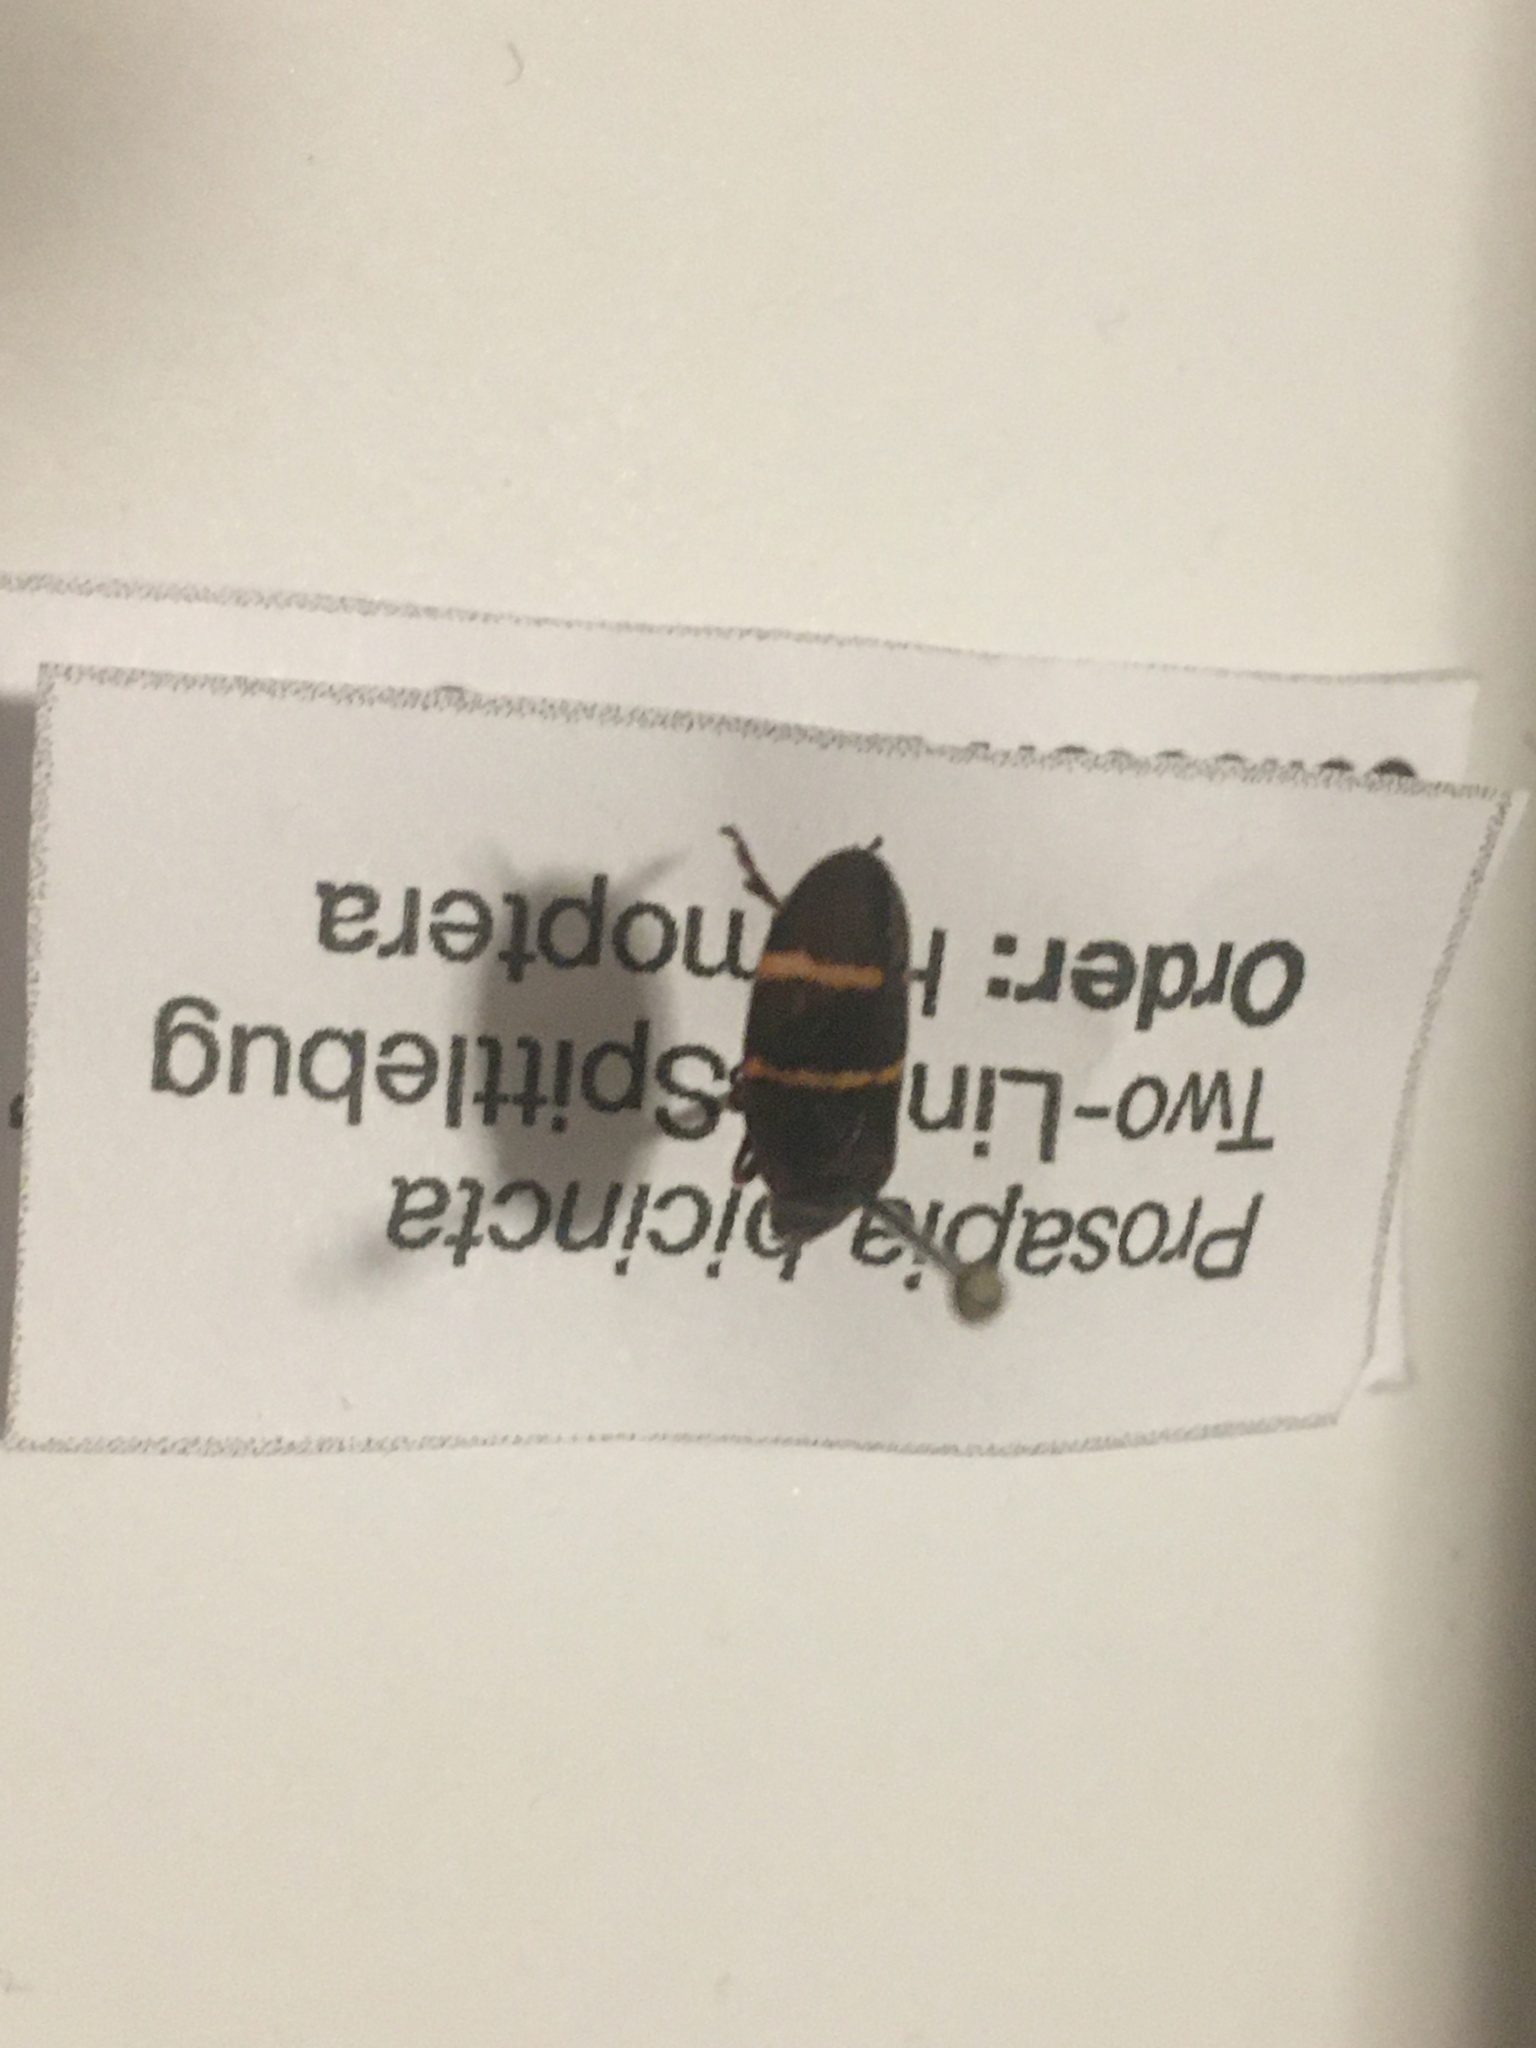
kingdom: Animalia
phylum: Arthropoda
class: Insecta
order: Hemiptera
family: Cercopidae
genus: Prosapia
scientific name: Prosapia bicincta
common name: Twolined spittlebug
